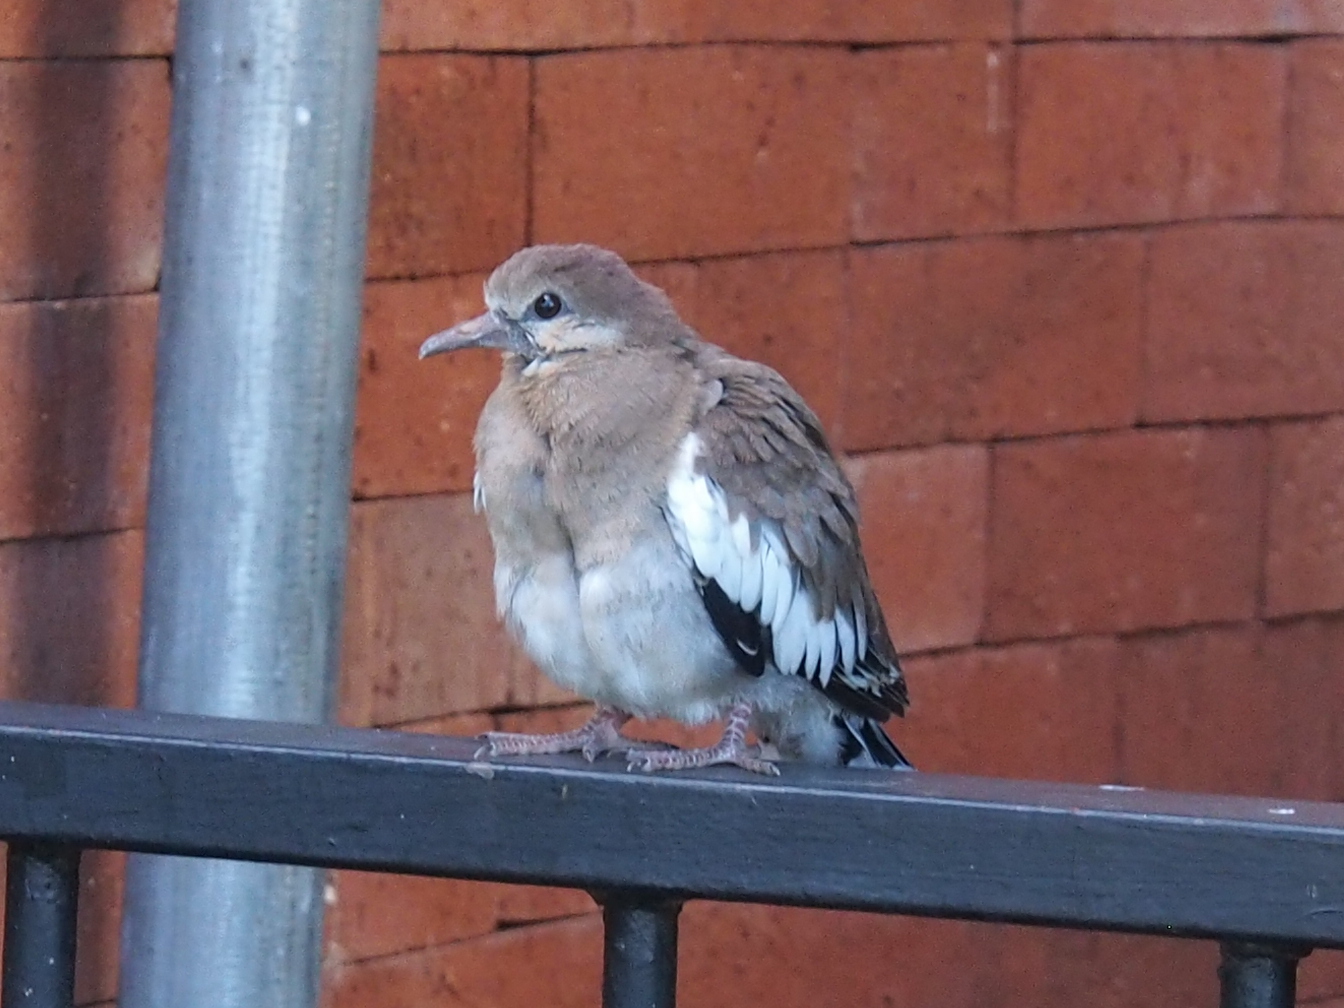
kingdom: Animalia
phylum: Chordata
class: Aves
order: Columbiformes
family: Columbidae
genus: Zenaida
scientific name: Zenaida asiatica
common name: White-winged dove
